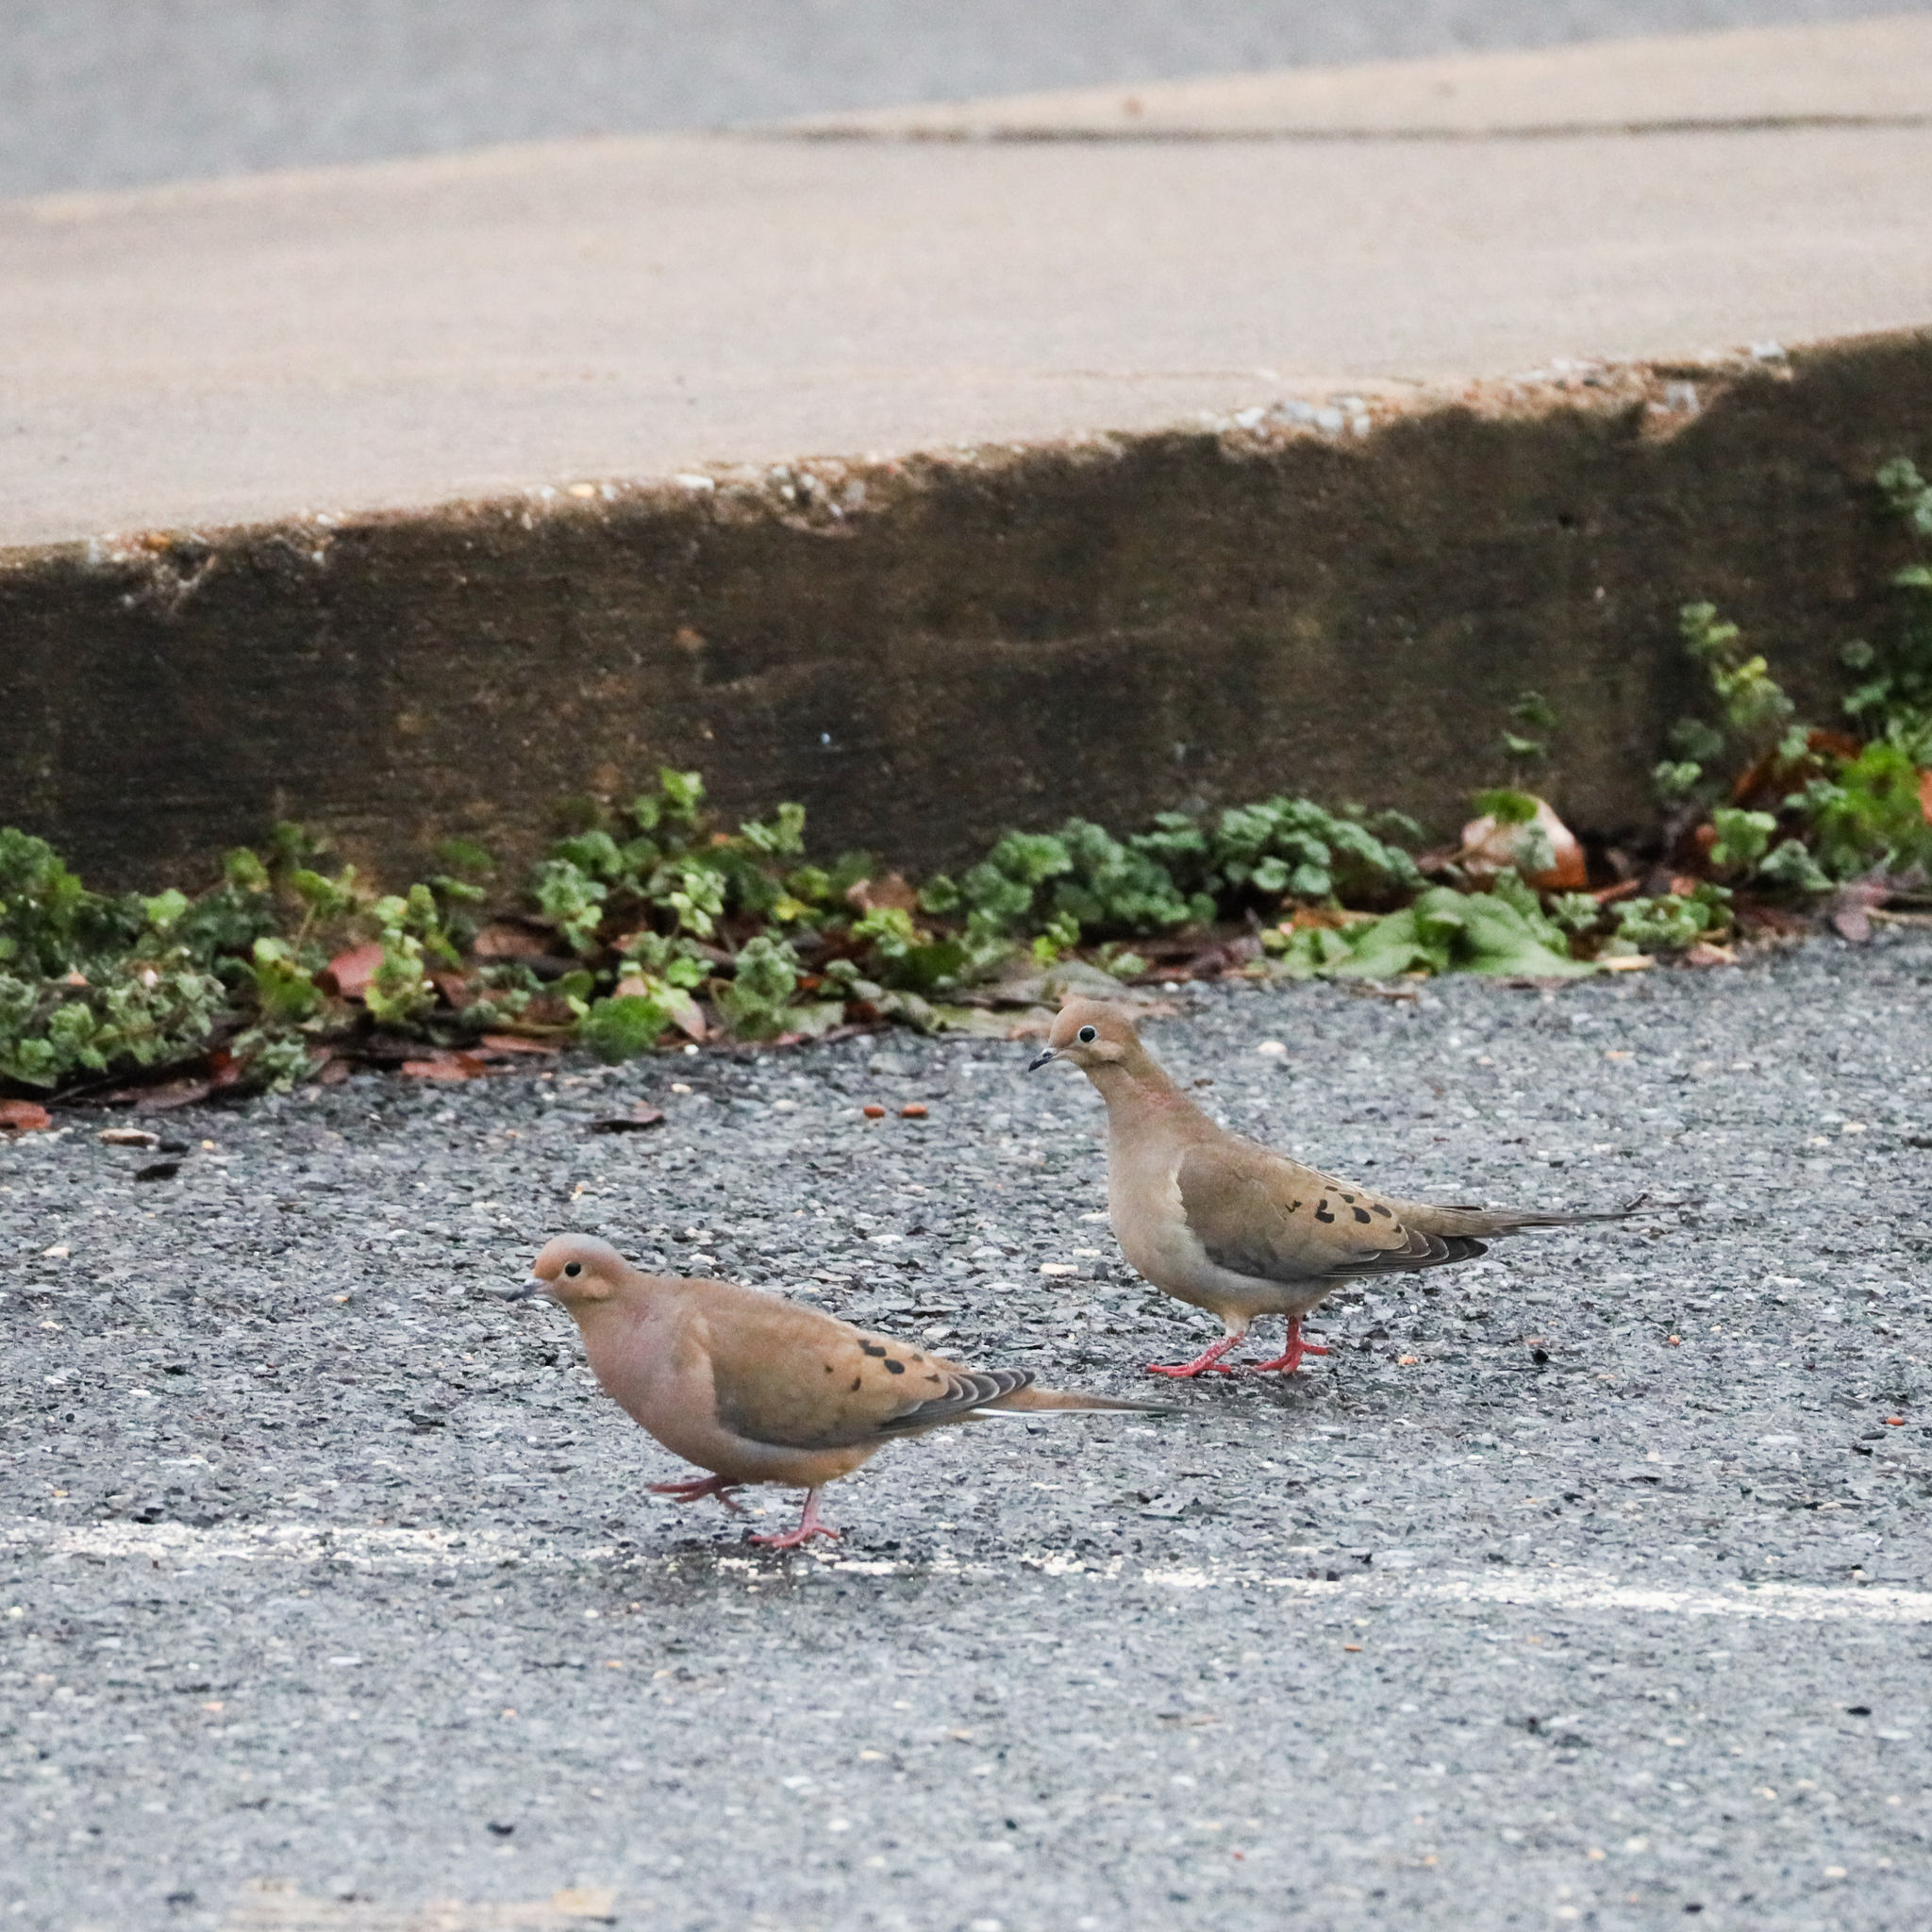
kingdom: Animalia
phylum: Chordata
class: Aves
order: Columbiformes
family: Columbidae
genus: Zenaida
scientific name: Zenaida macroura
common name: Mourning dove
